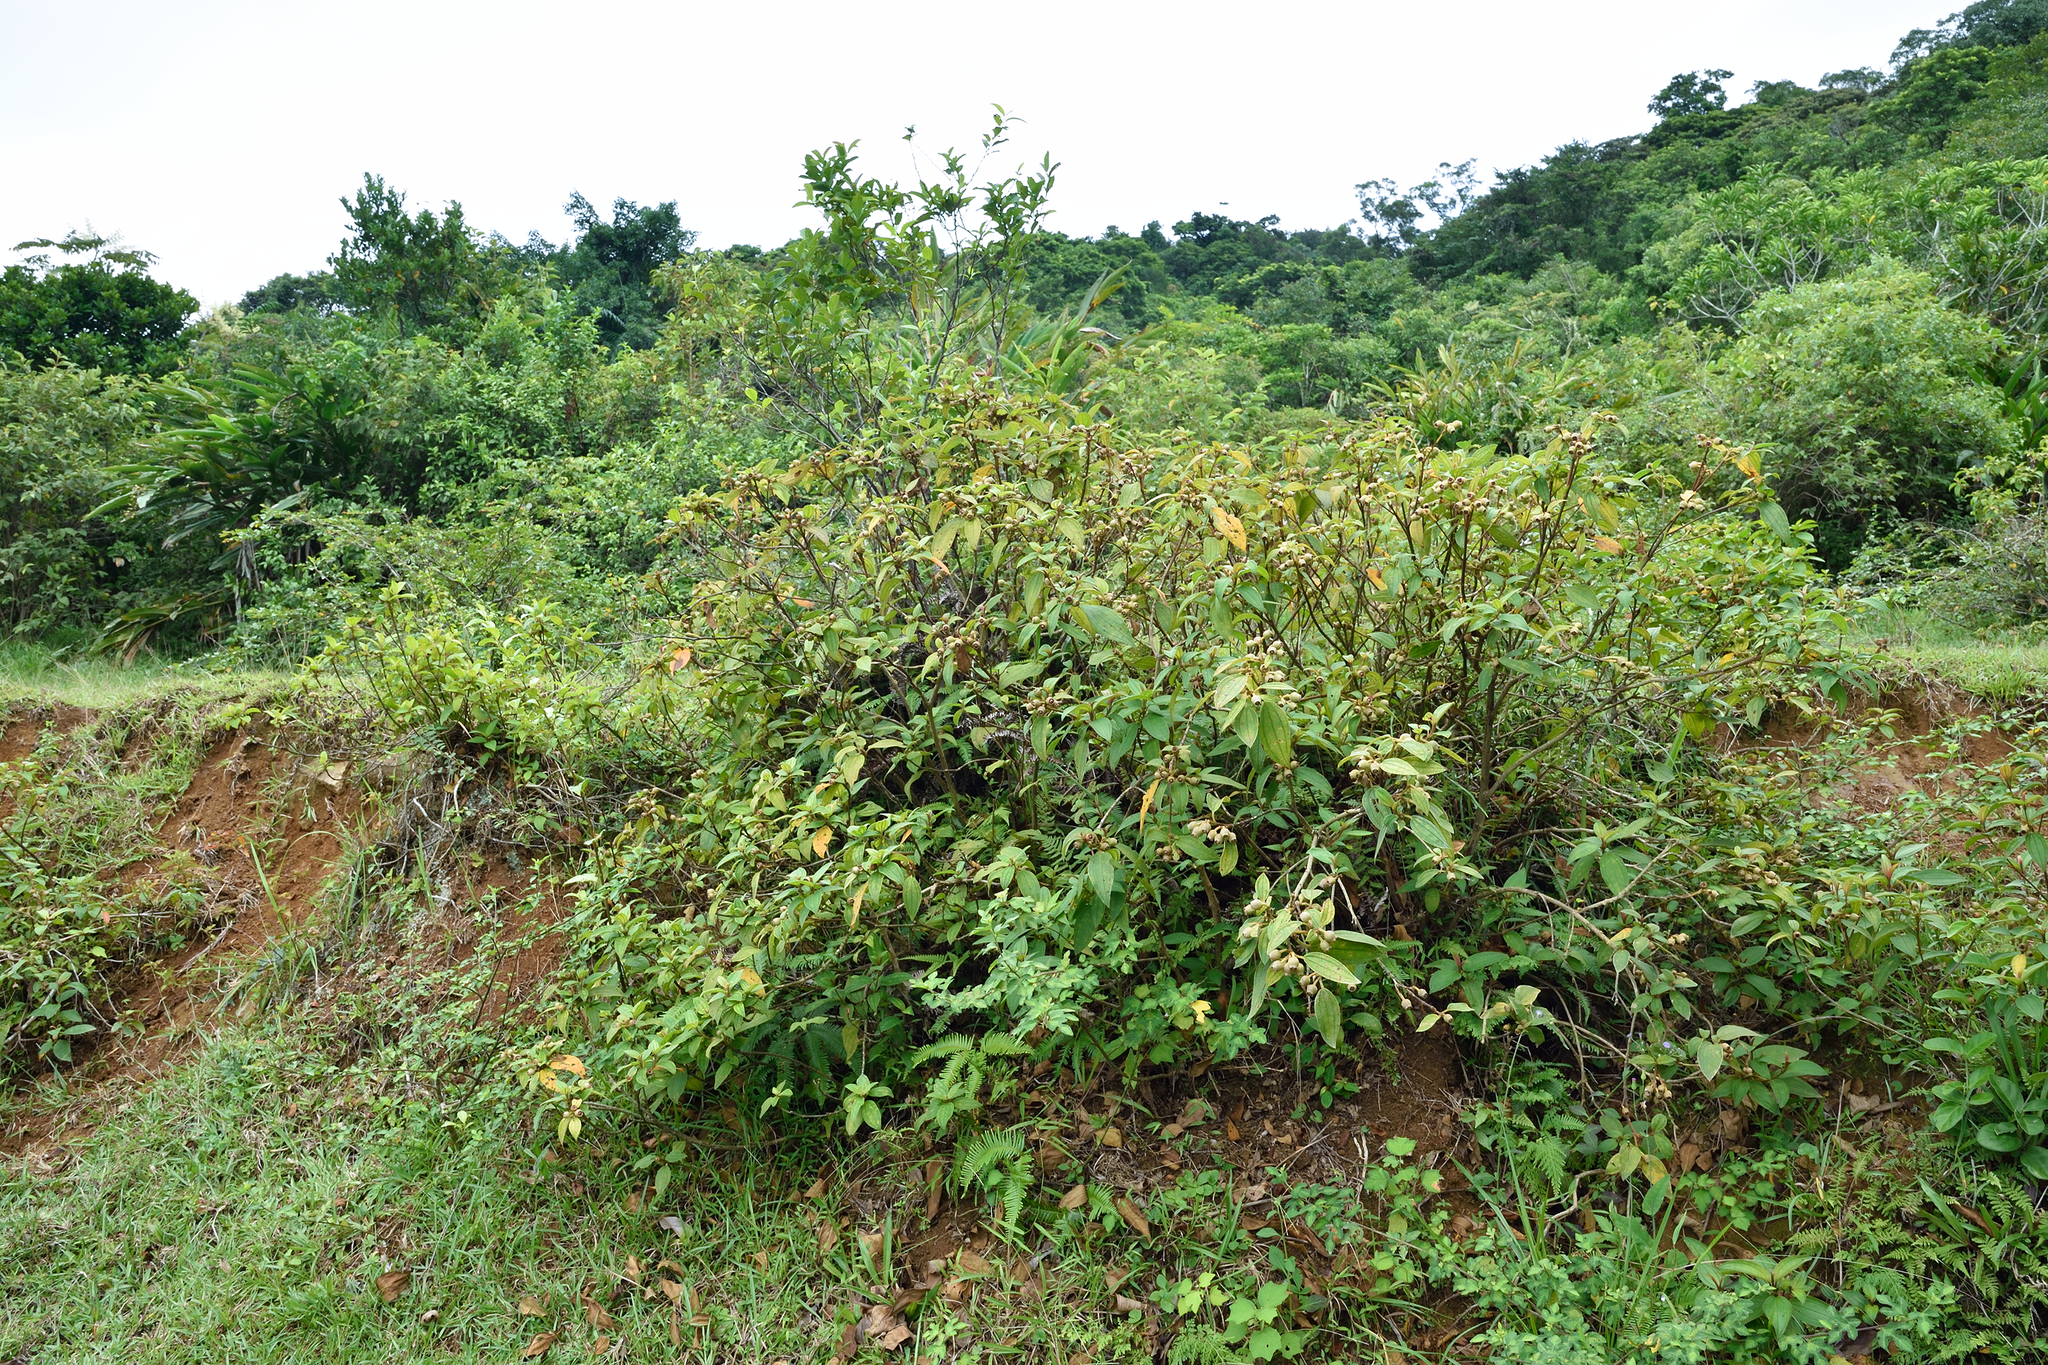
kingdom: Plantae
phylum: Tracheophyta
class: Magnoliopsida
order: Myrtales
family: Melastomataceae
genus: Melastoma
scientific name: Melastoma malabathricum
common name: Indian-rhododendron
